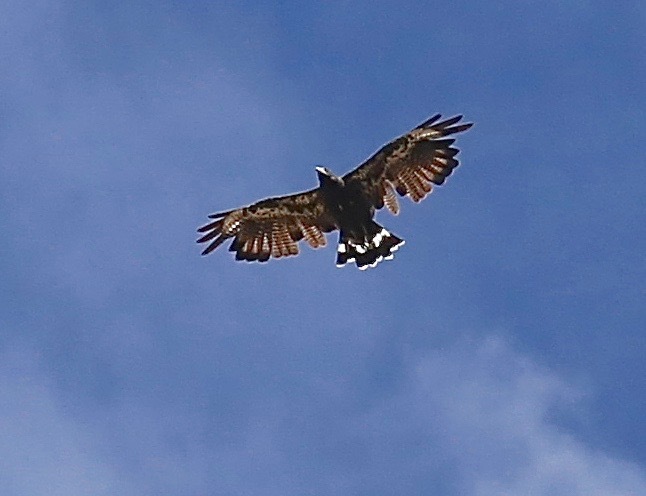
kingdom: Animalia
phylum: Chordata
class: Aves
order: Accipitriformes
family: Accipitridae
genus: Buteogallus
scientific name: Buteogallus anthracinus
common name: Common black hawk
